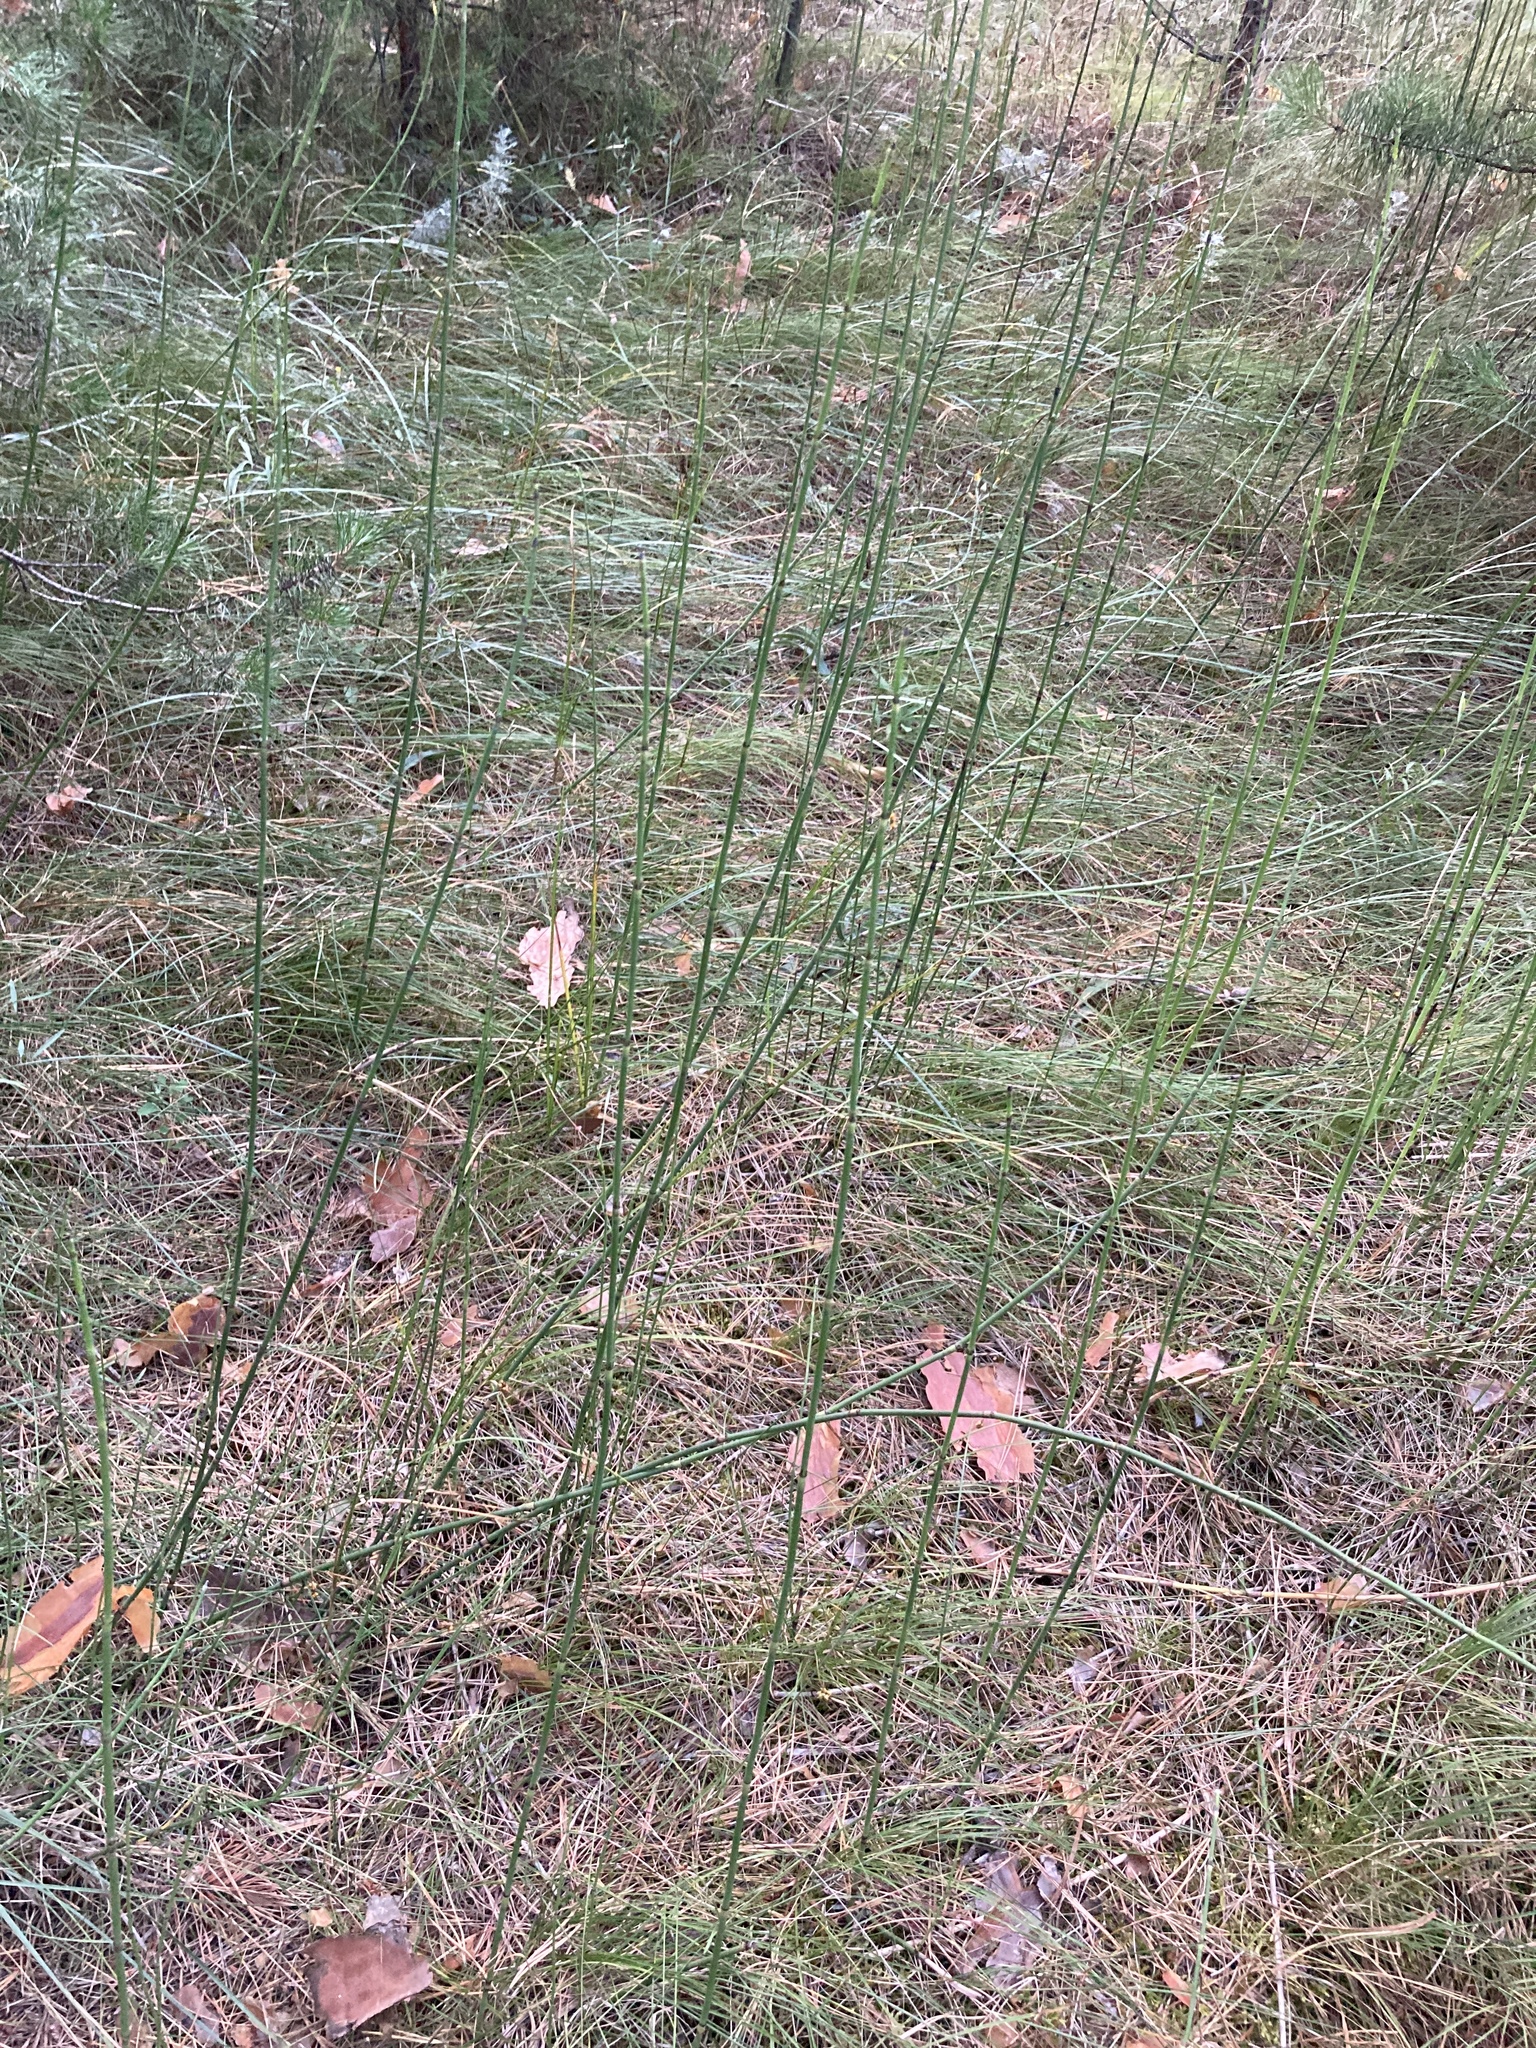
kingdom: Plantae
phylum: Tracheophyta
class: Polypodiopsida
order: Equisetales
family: Equisetaceae
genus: Equisetum
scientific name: Equisetum moorei
